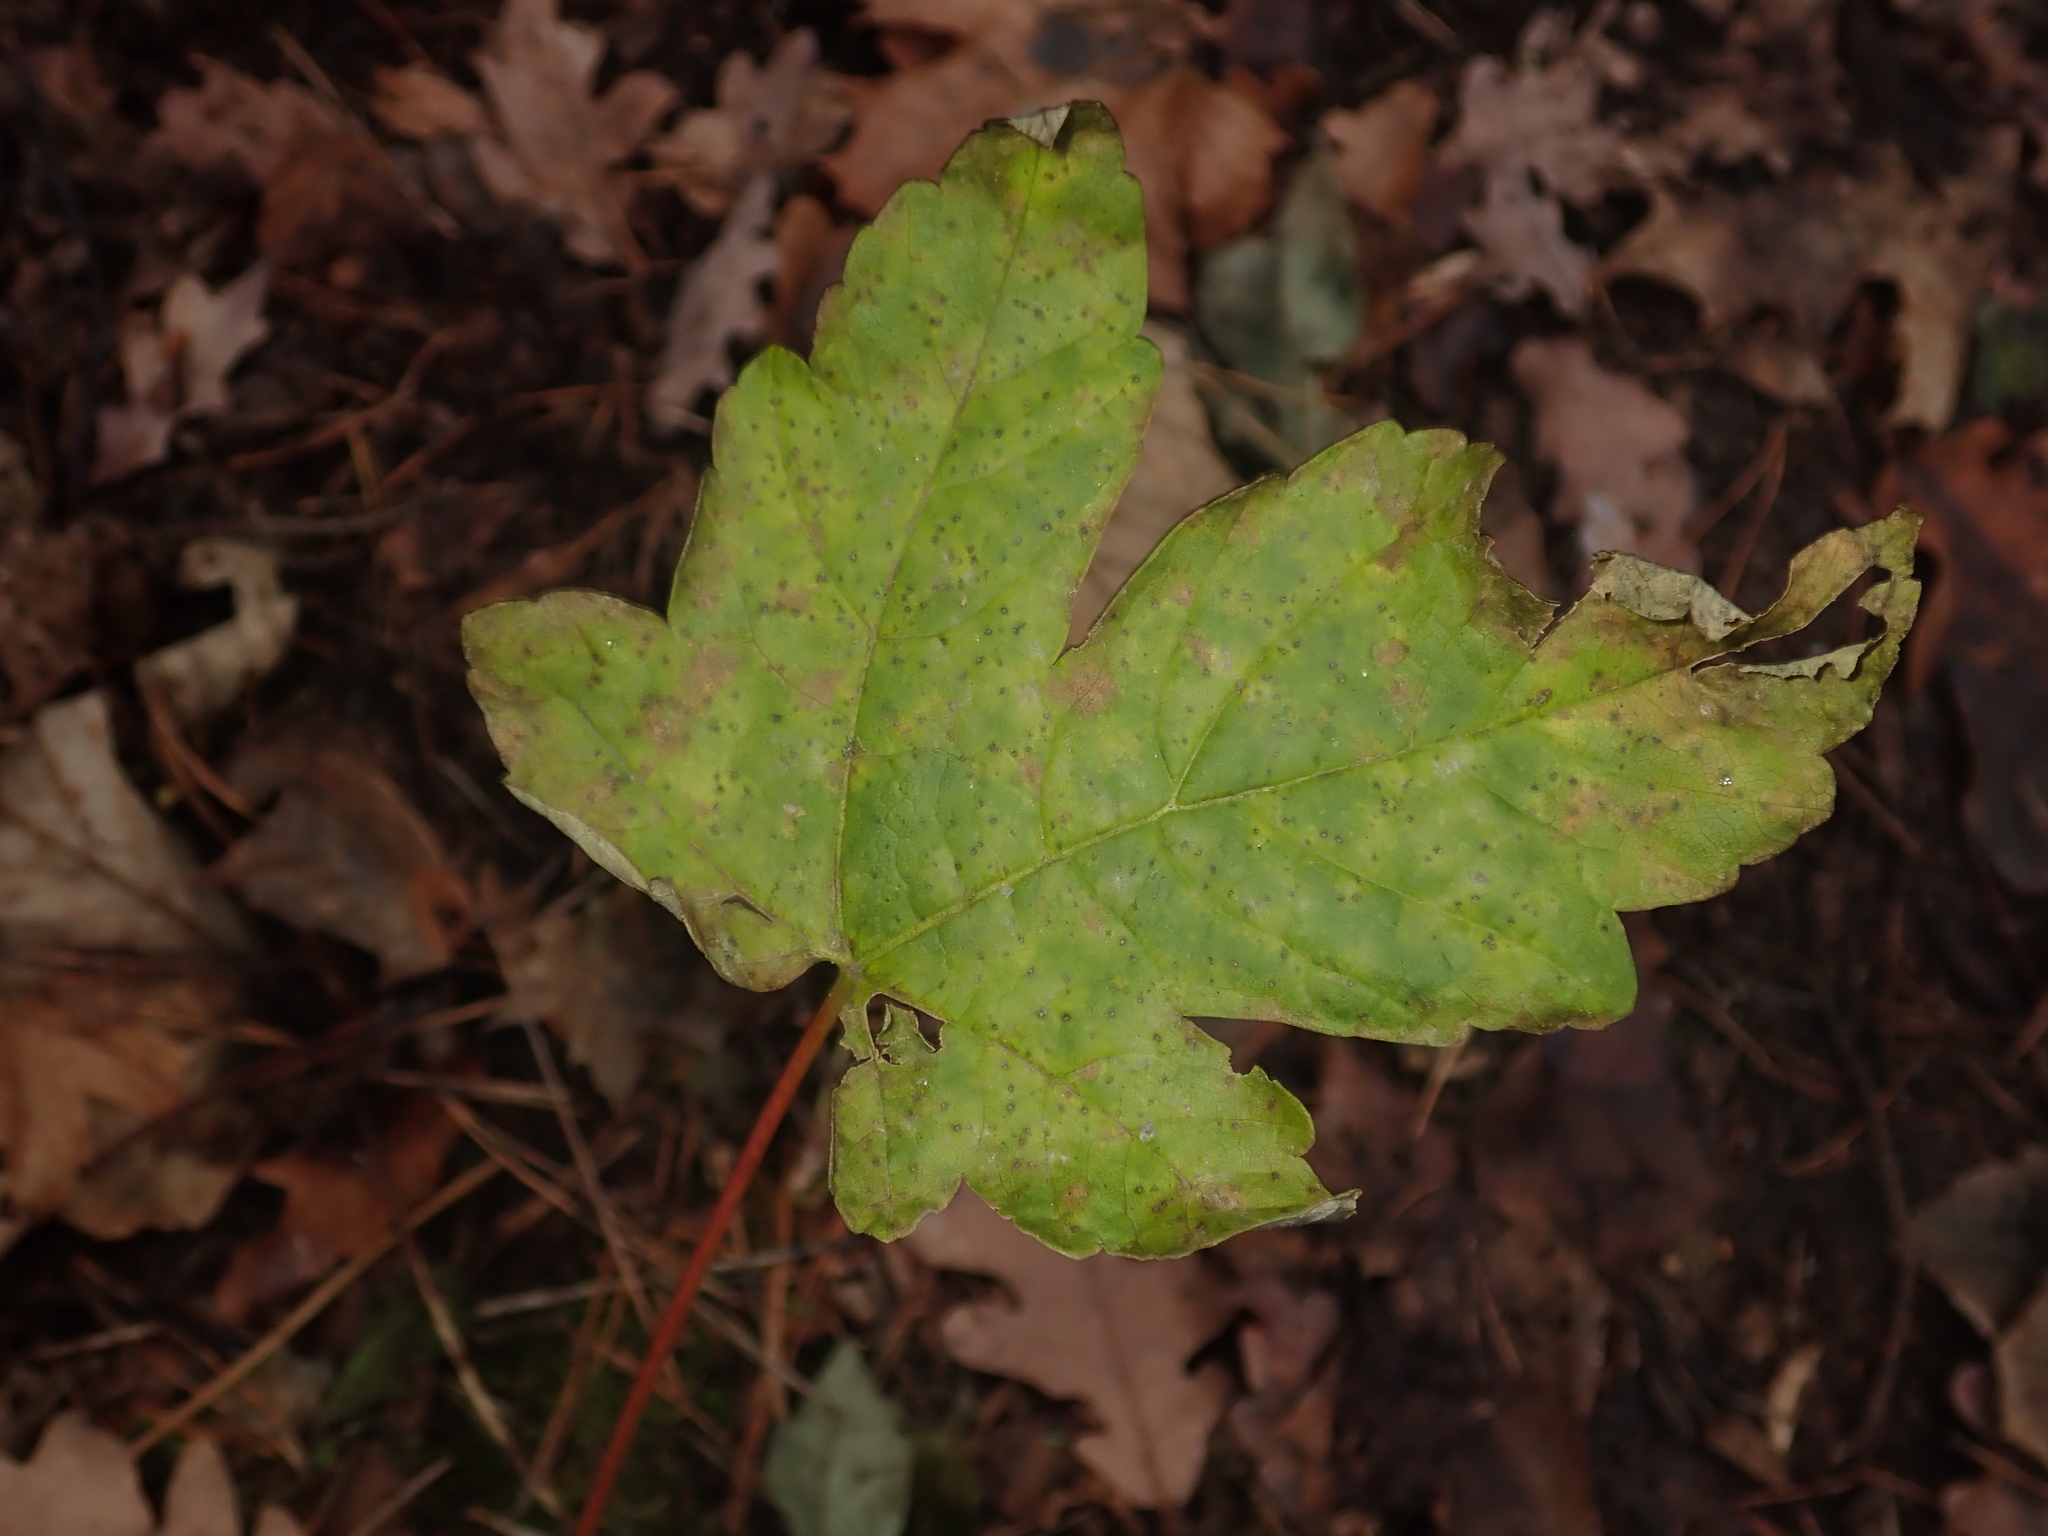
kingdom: Plantae
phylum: Tracheophyta
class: Magnoliopsida
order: Sapindales
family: Sapindaceae
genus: Acer
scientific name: Acer pseudoplatanus
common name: Sycamore
